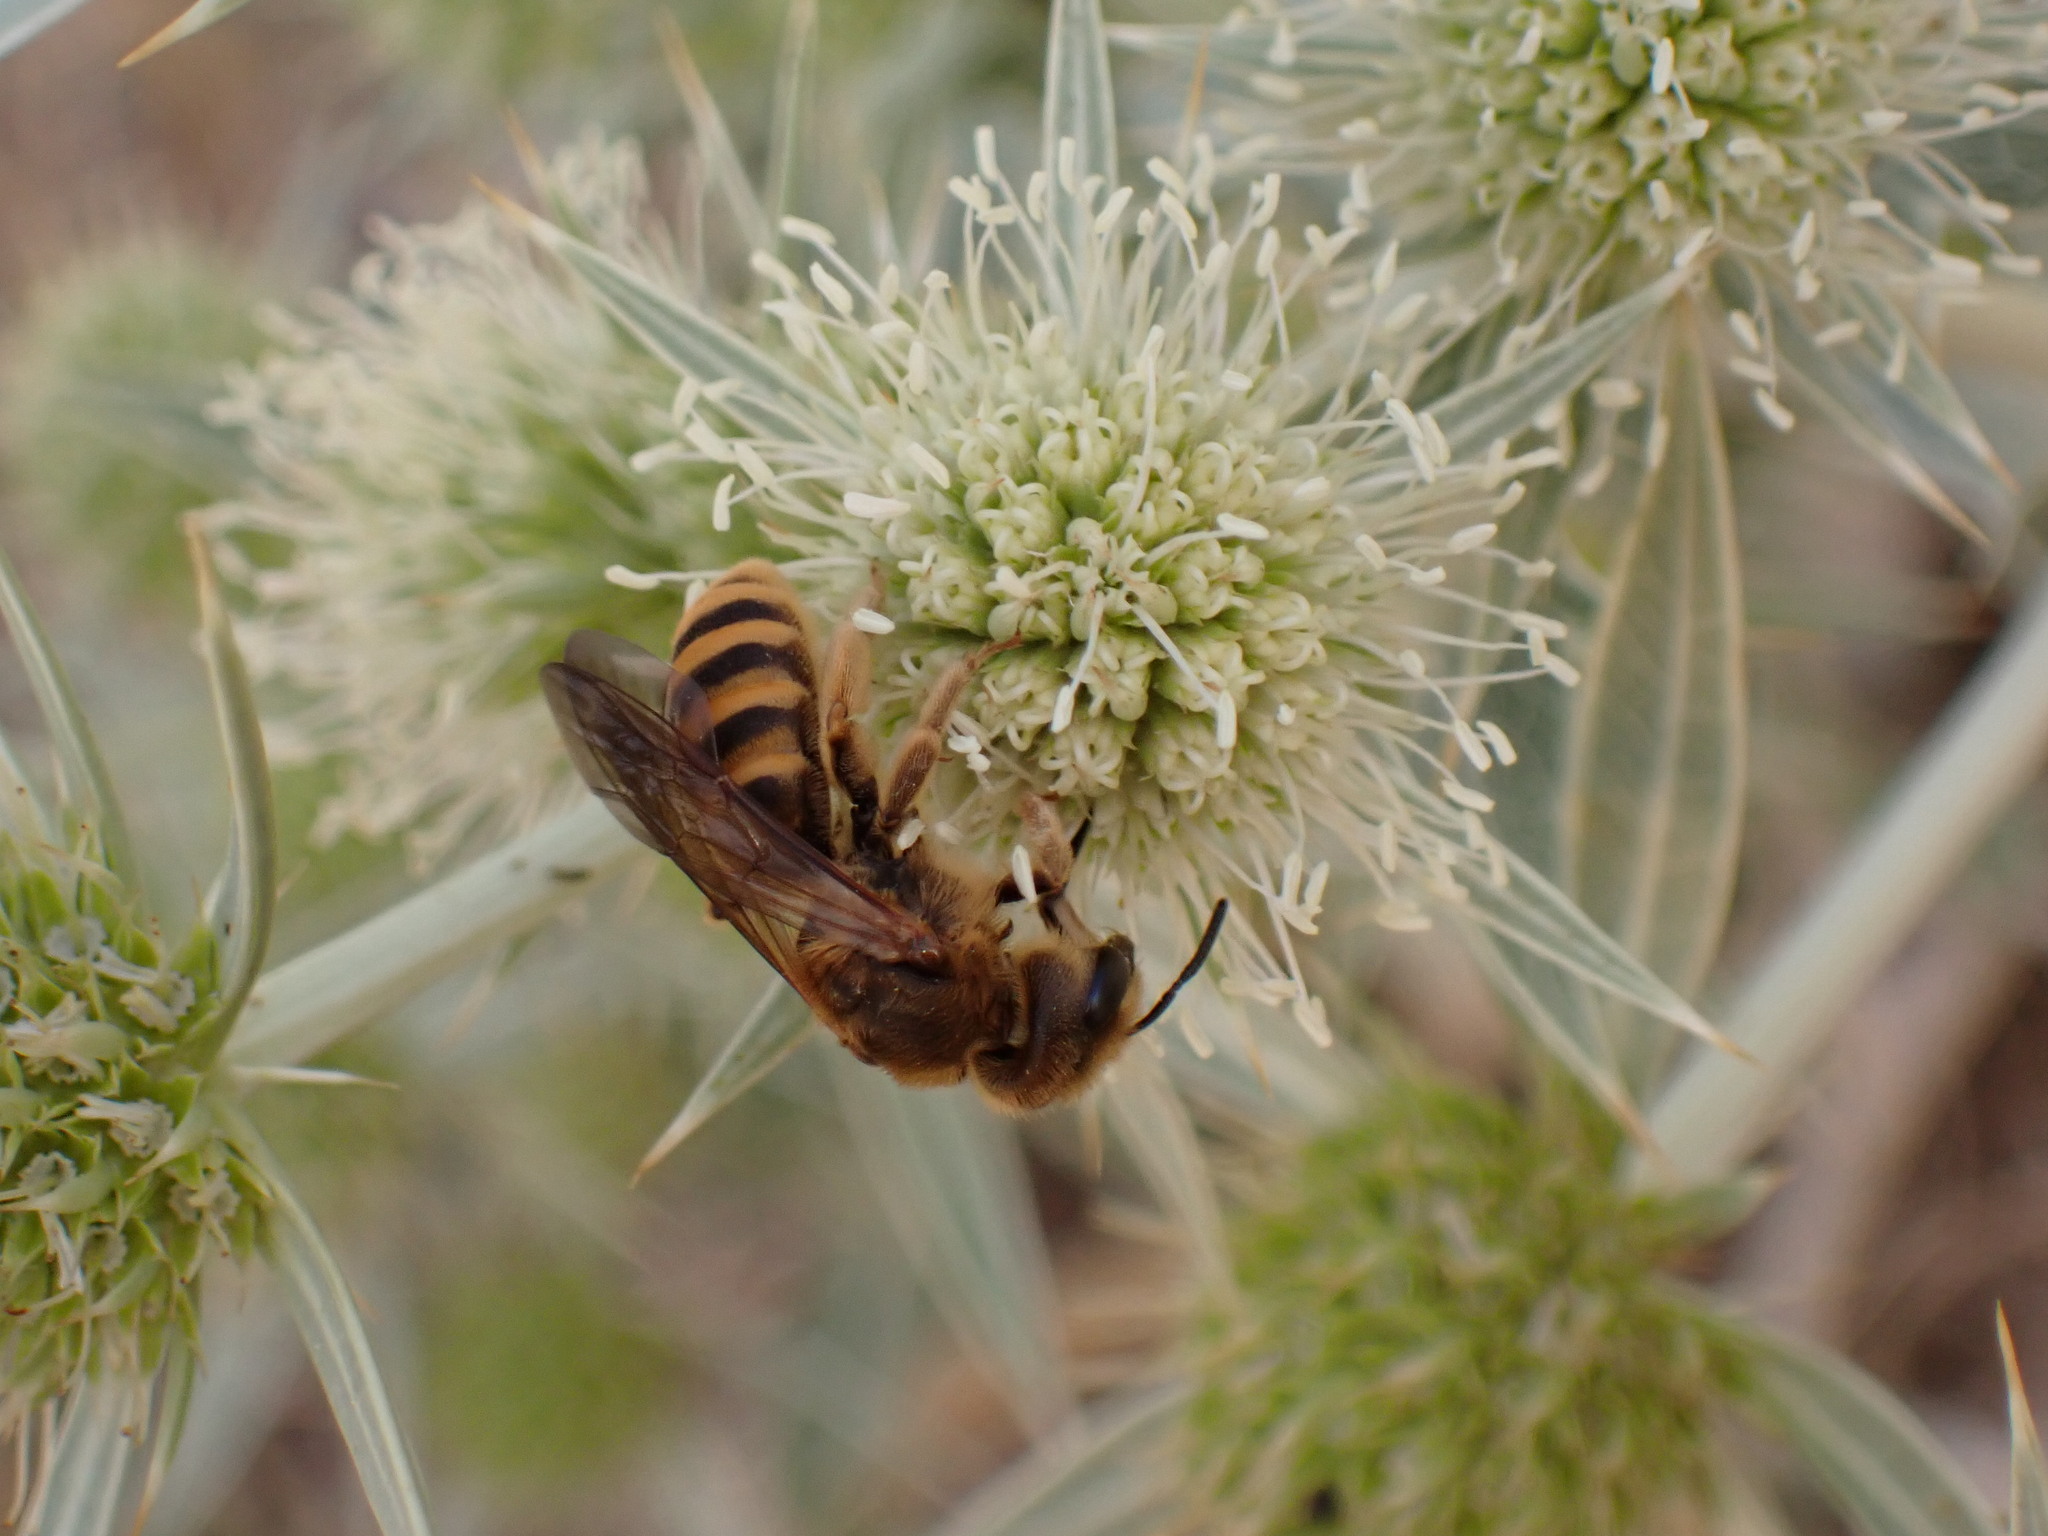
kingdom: Animalia
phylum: Arthropoda
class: Insecta
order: Hymenoptera
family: Halictidae
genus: Halictus
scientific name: Halictus scabiosae
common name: Great banded furrow bee
